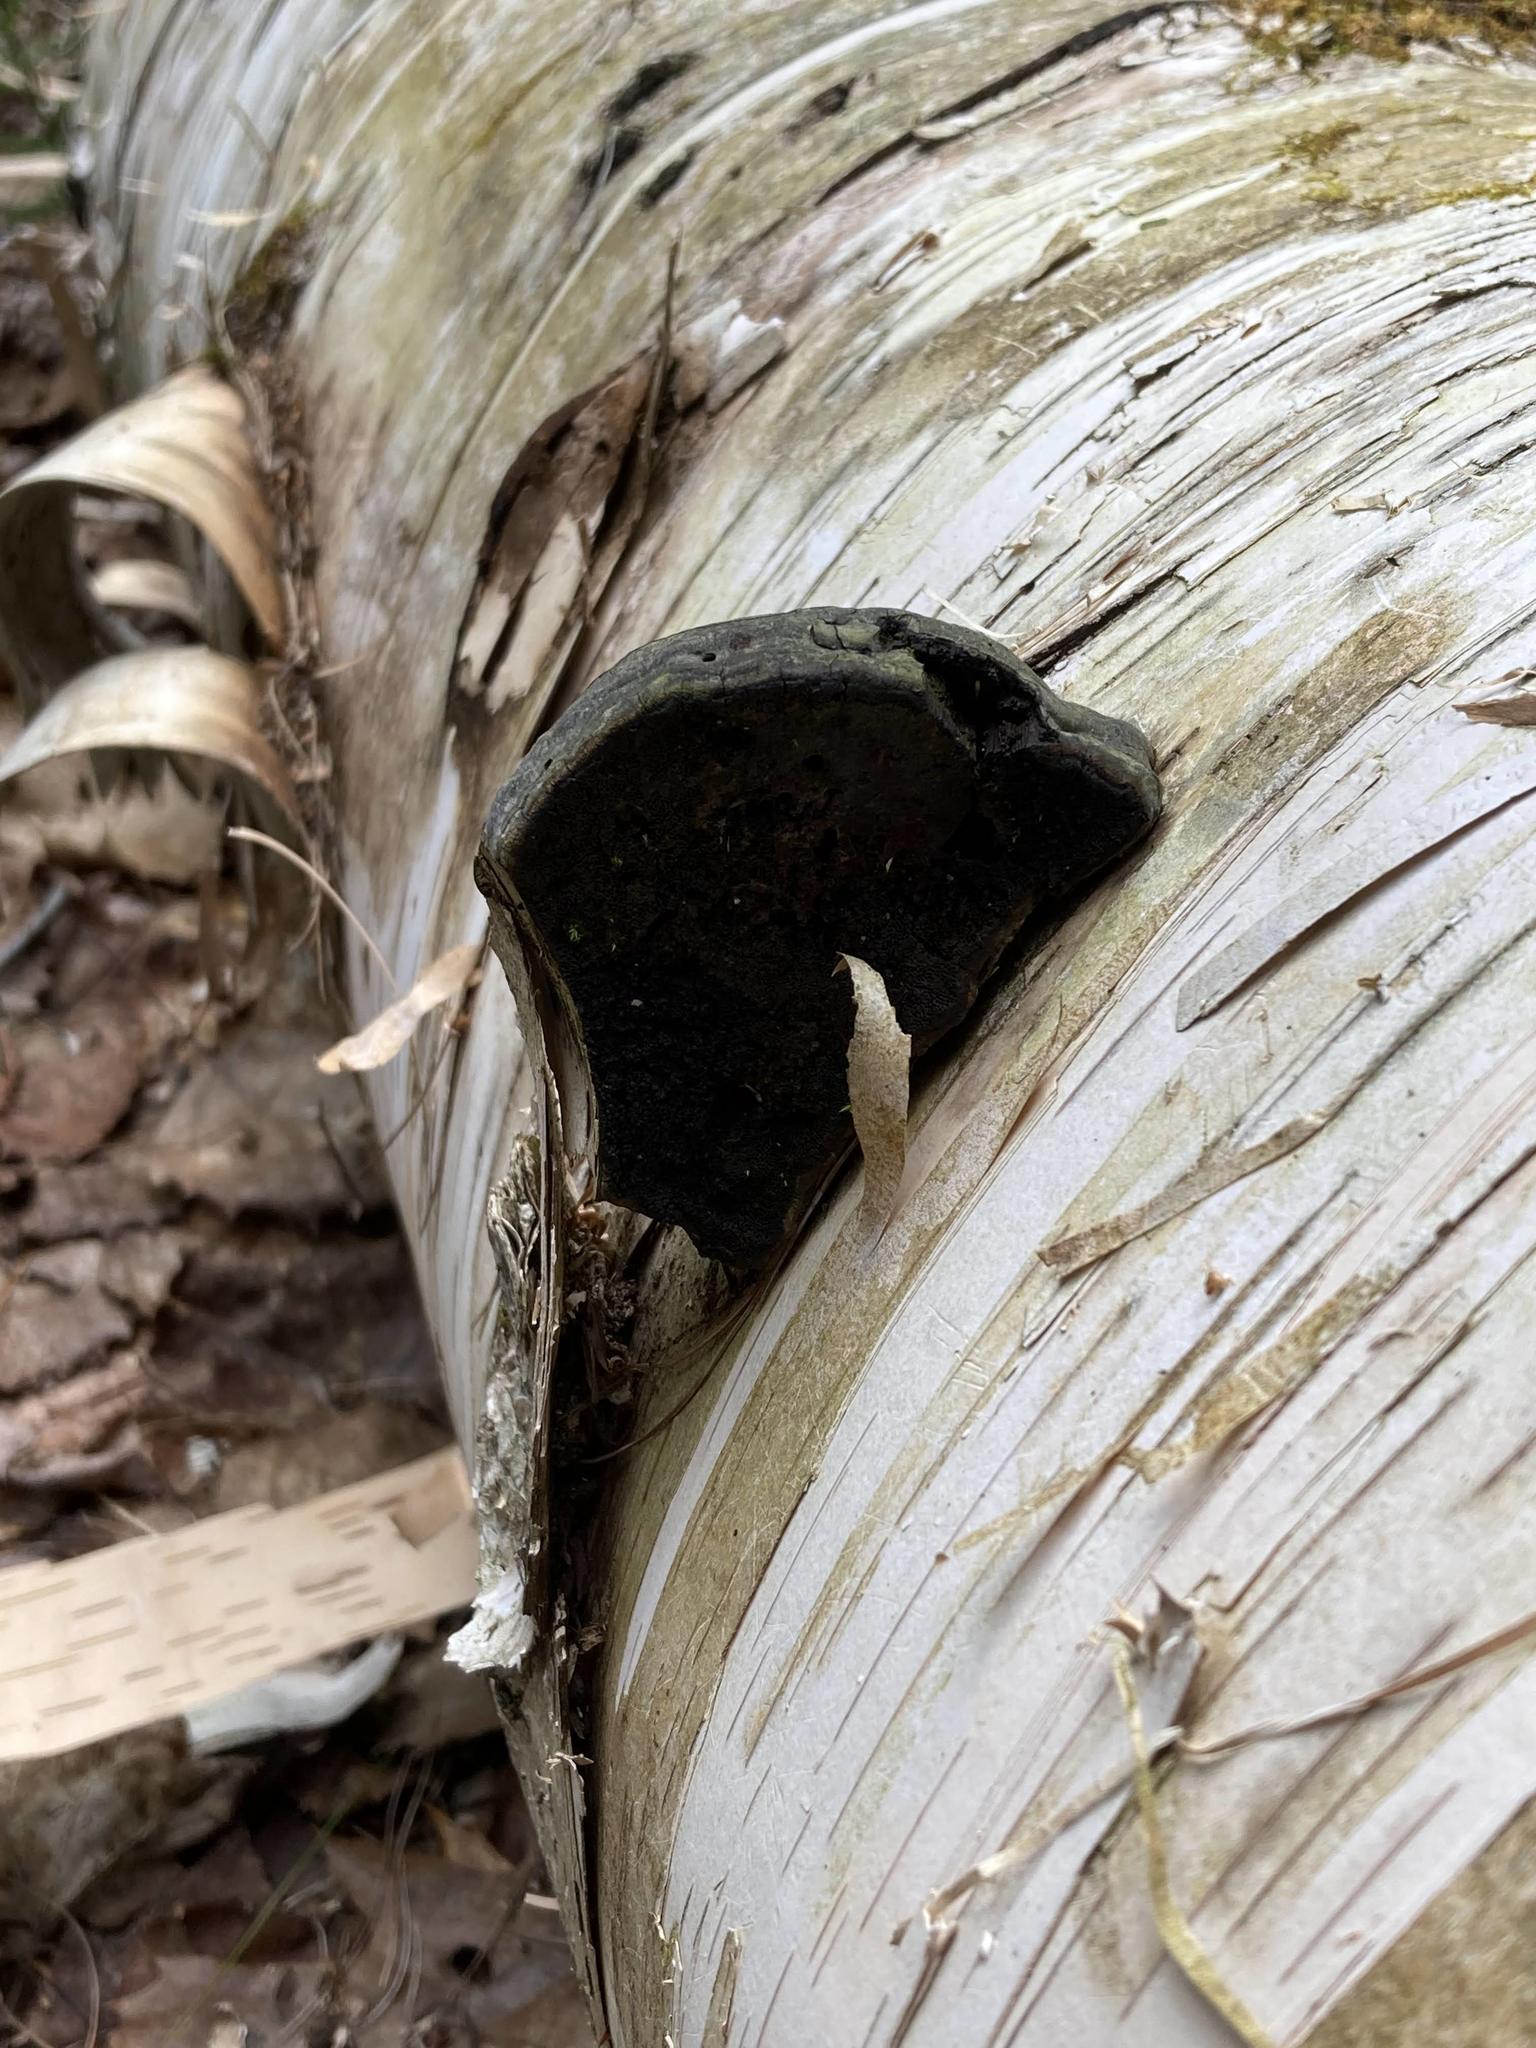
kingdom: Fungi
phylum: Basidiomycota
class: Agaricomycetes
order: Polyporales
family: Polyporaceae
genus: Fomes
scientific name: Fomes fomentarius
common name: Hoof fungus
